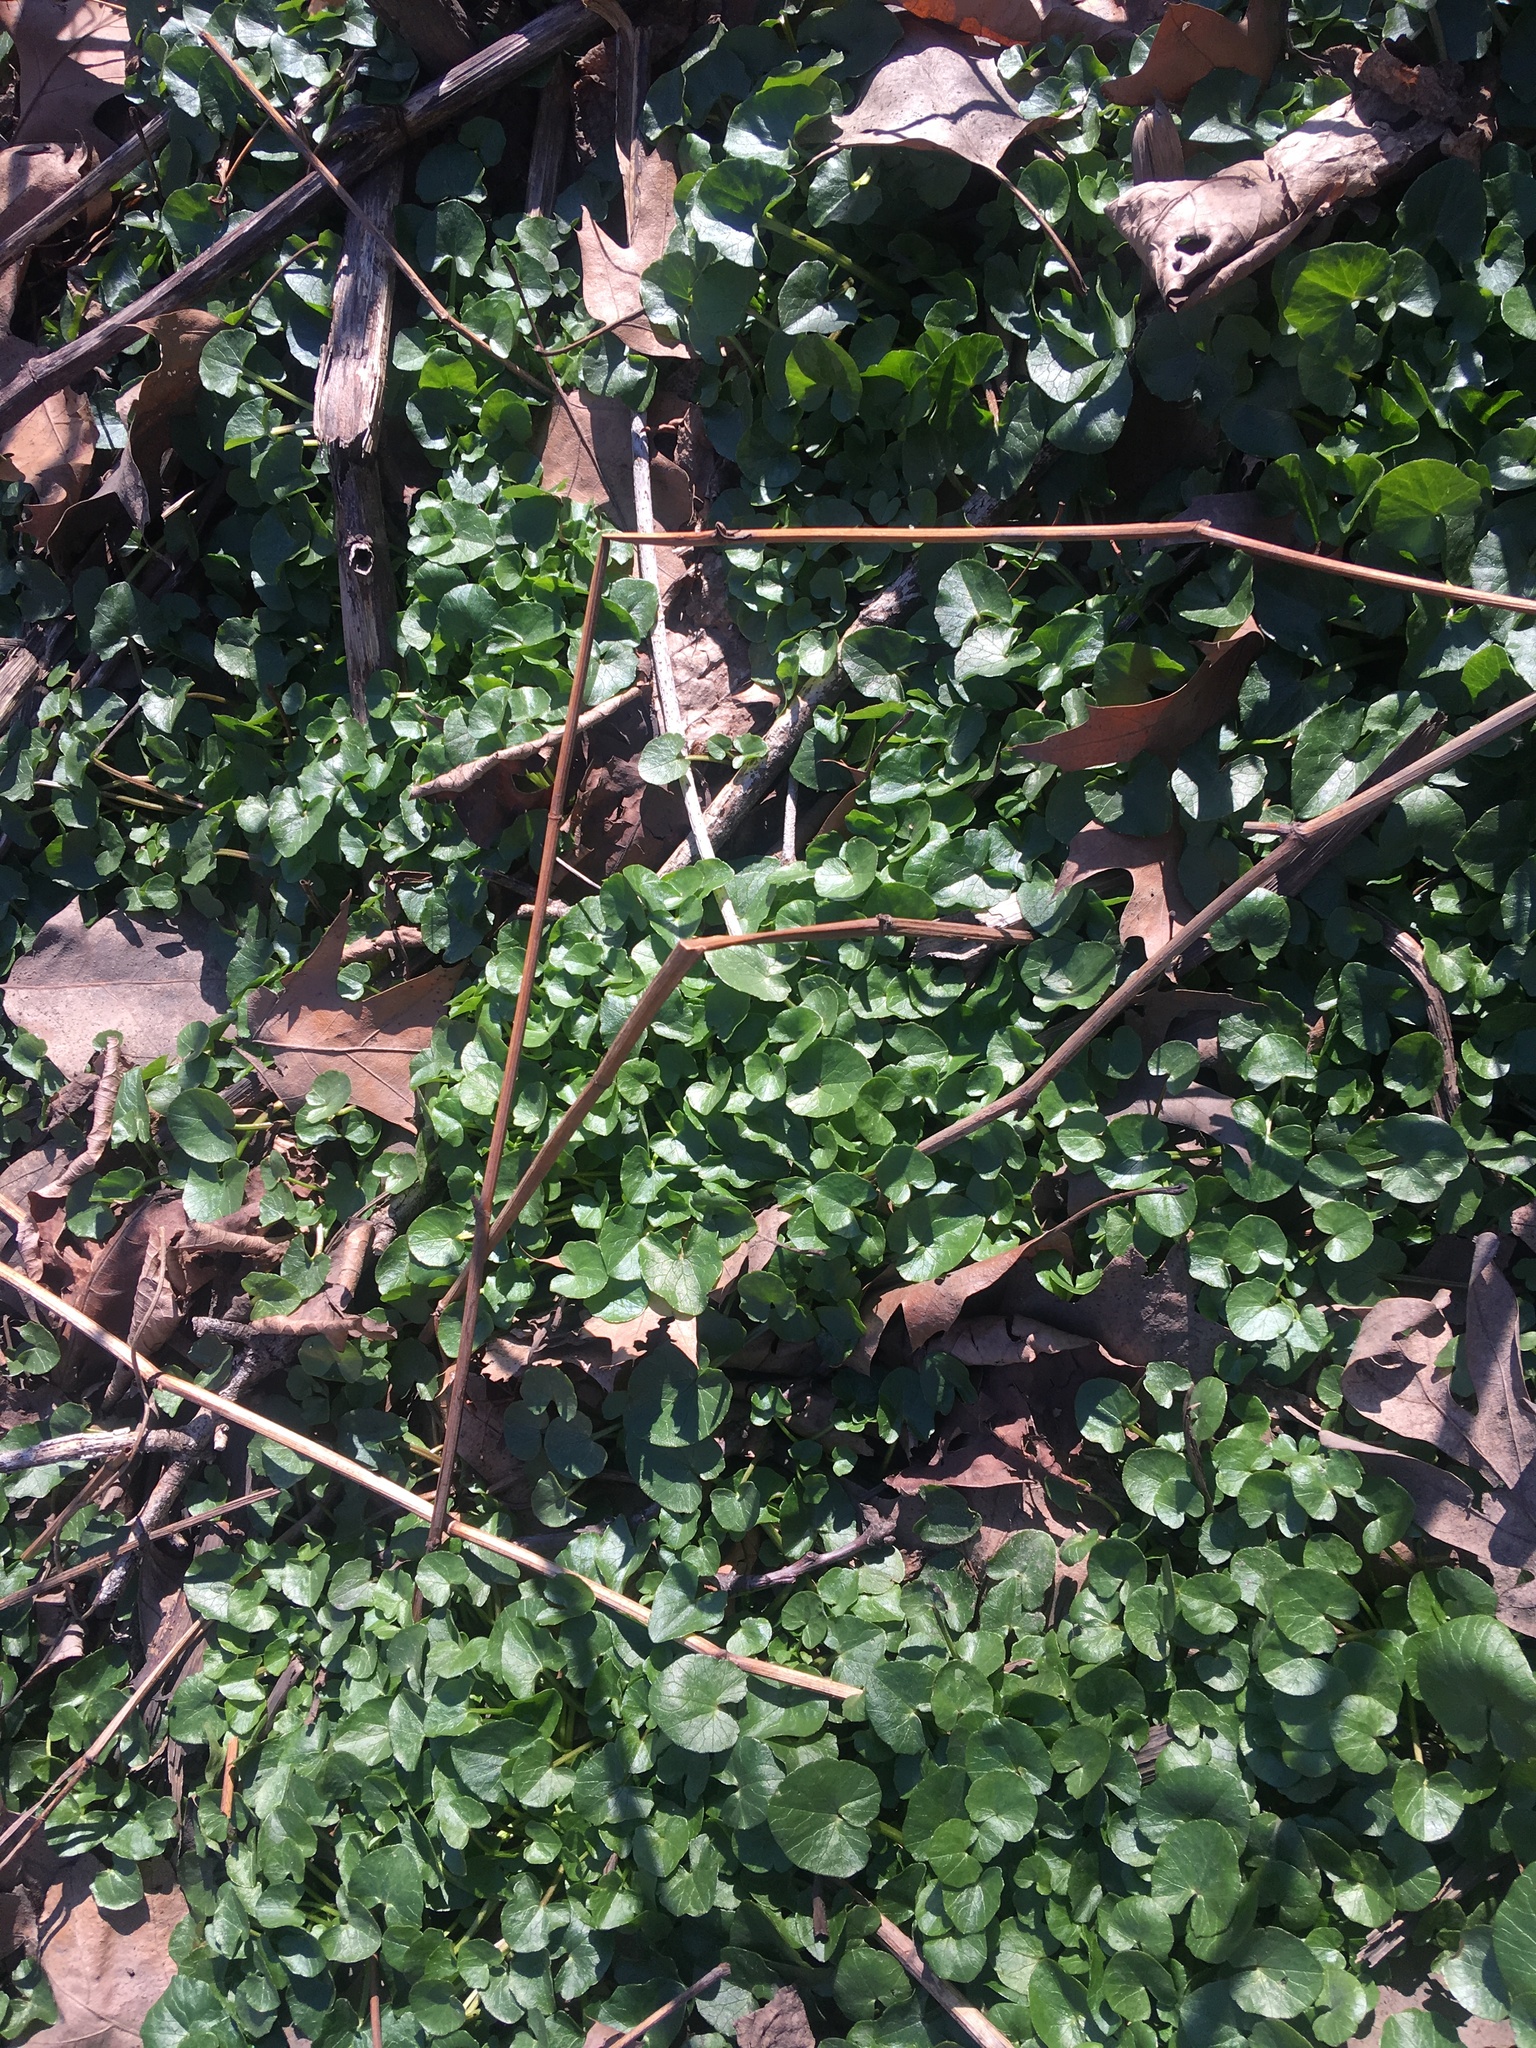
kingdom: Plantae
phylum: Tracheophyta
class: Magnoliopsida
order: Ranunculales
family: Ranunculaceae
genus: Ficaria
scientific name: Ficaria verna
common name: Lesser celandine
